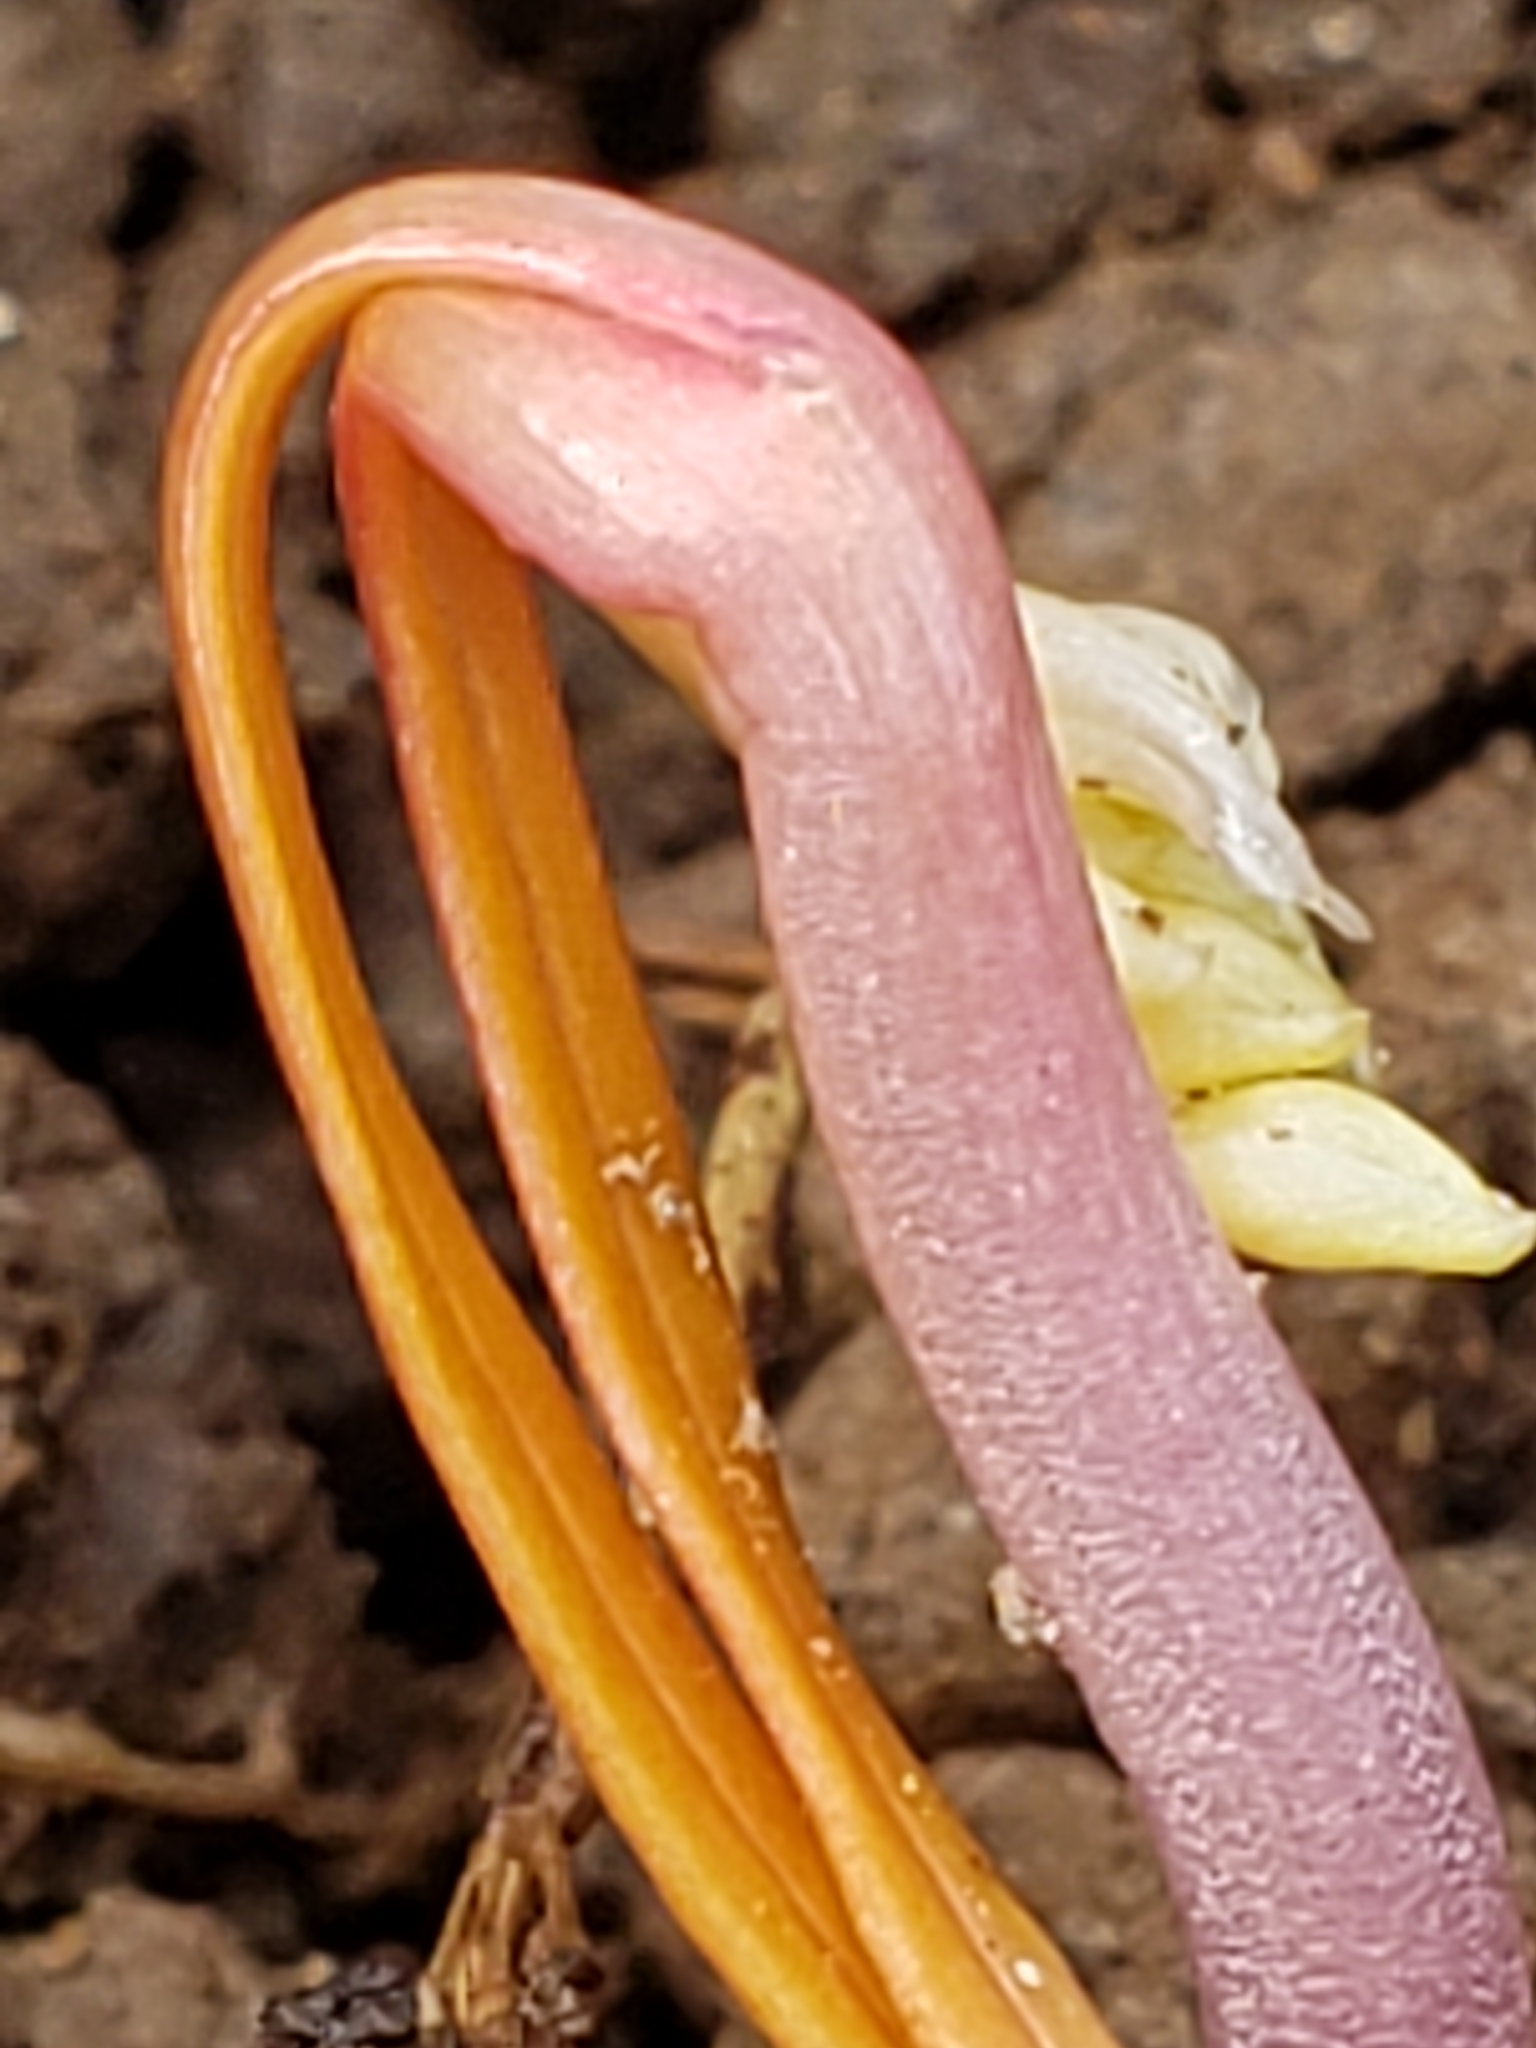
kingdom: Plantae
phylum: Tracheophyta
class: Magnoliopsida
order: Rosales
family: Rosaceae
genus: Rosa
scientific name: Rosa multiflora
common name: Multiflora rose
